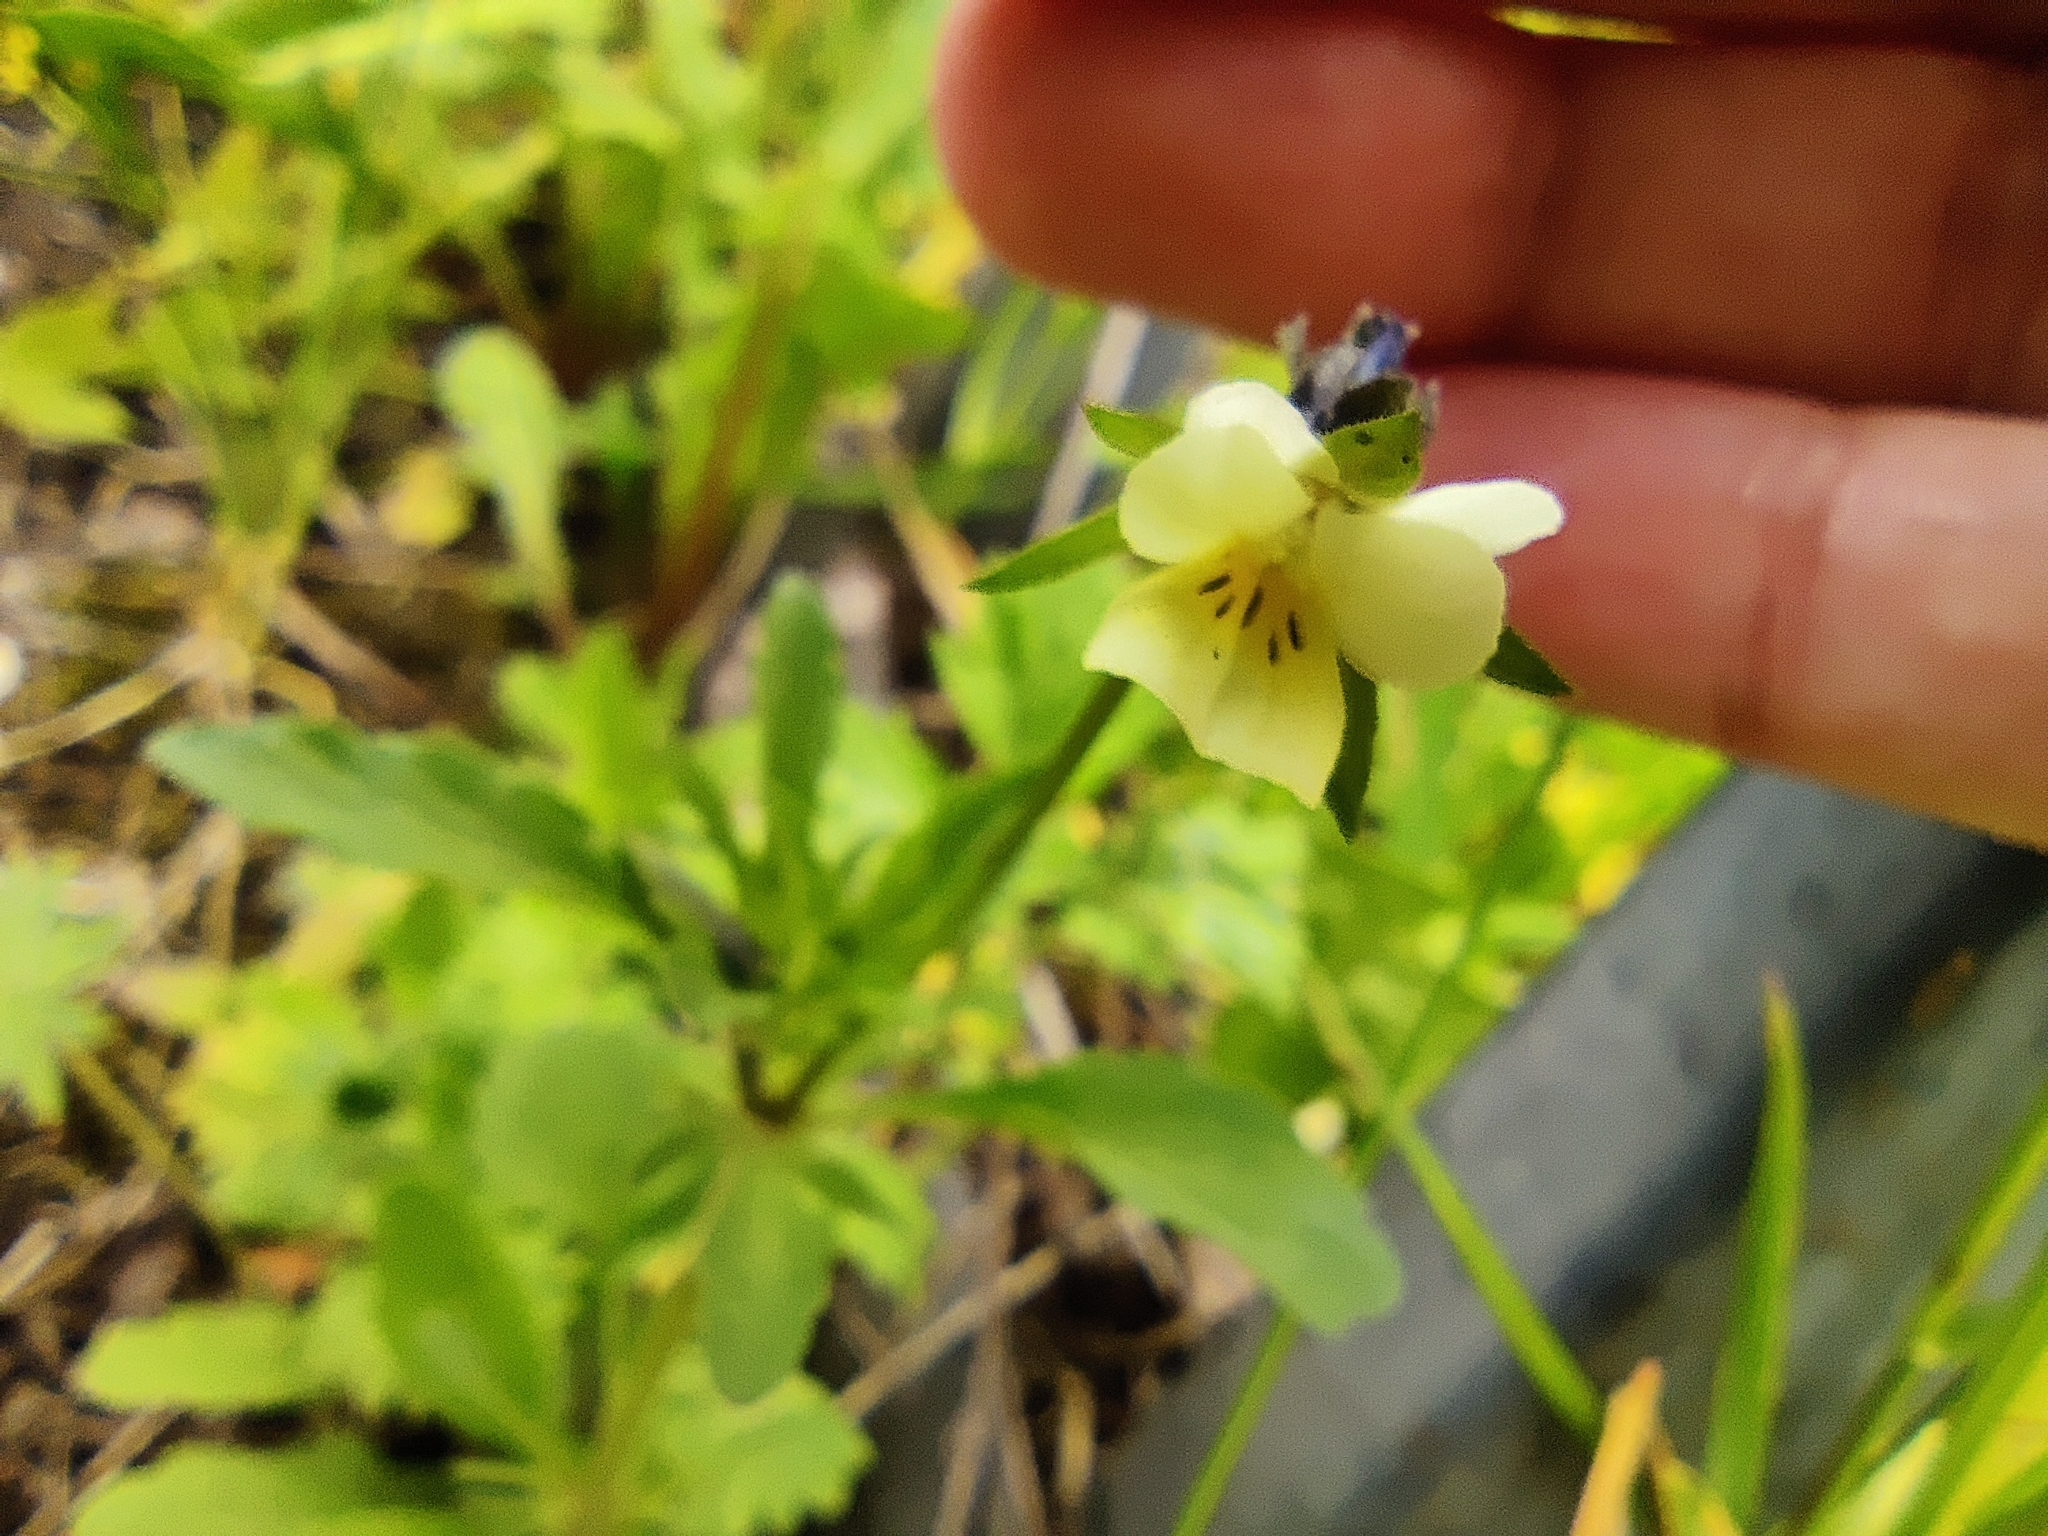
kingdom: Plantae
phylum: Tracheophyta
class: Magnoliopsida
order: Malpighiales
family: Violaceae
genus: Viola
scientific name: Viola arvensis
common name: Field pansy
